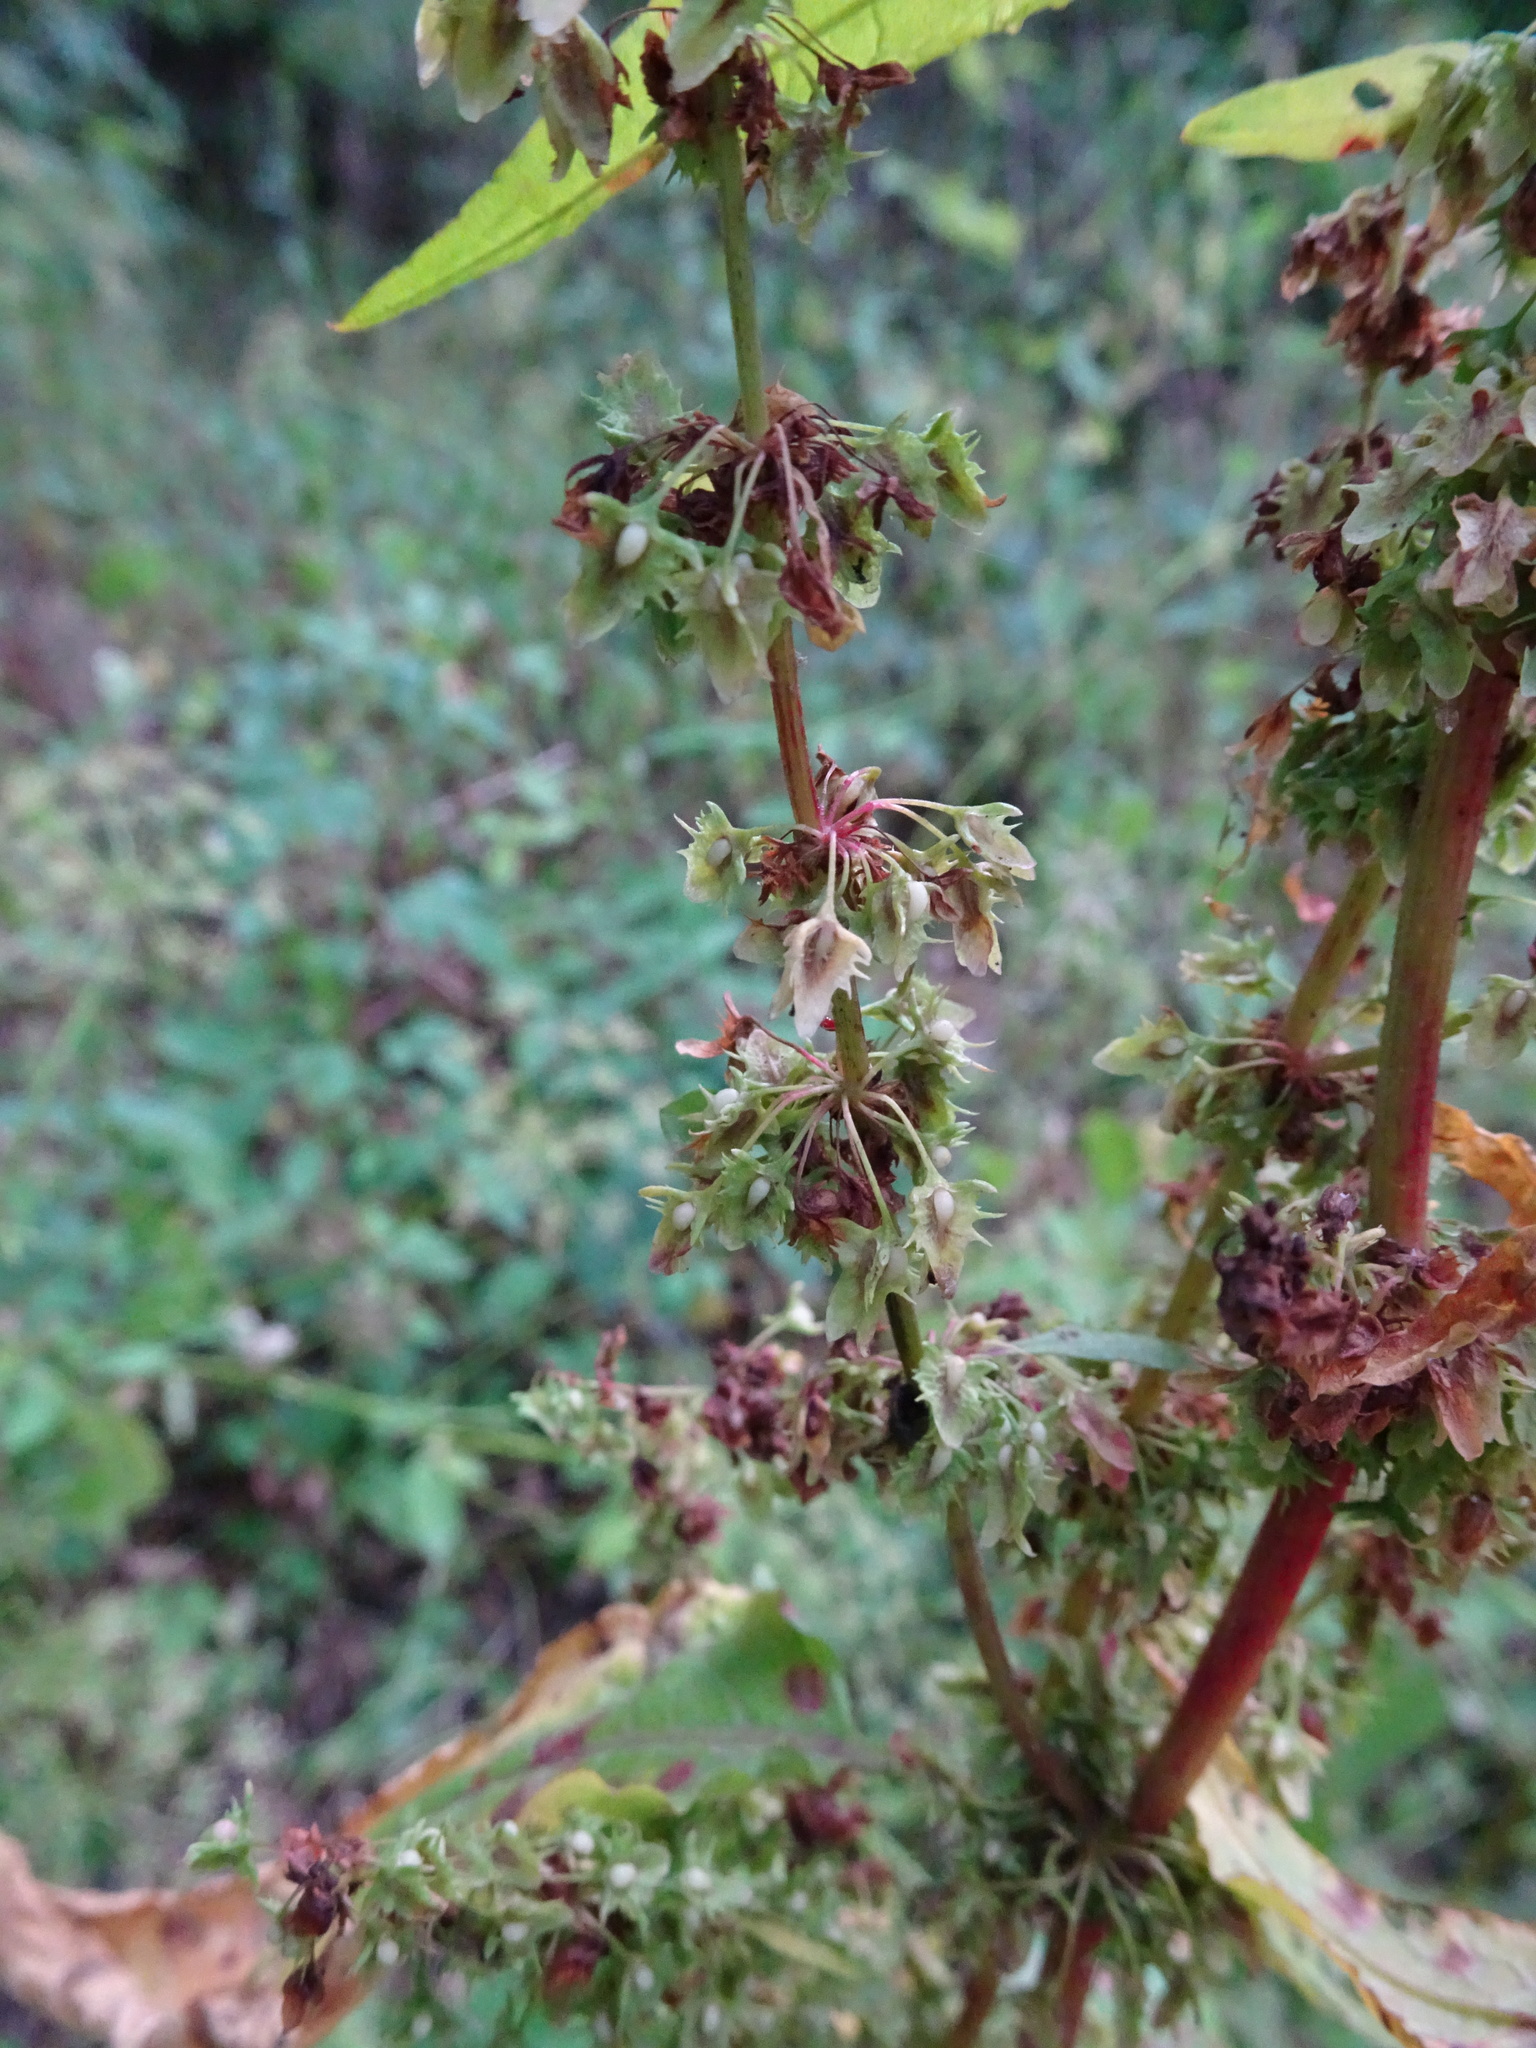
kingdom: Plantae
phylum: Tracheophyta
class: Magnoliopsida
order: Caryophyllales
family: Polygonaceae
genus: Rumex
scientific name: Rumex obtusifolius
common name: Bitter dock
